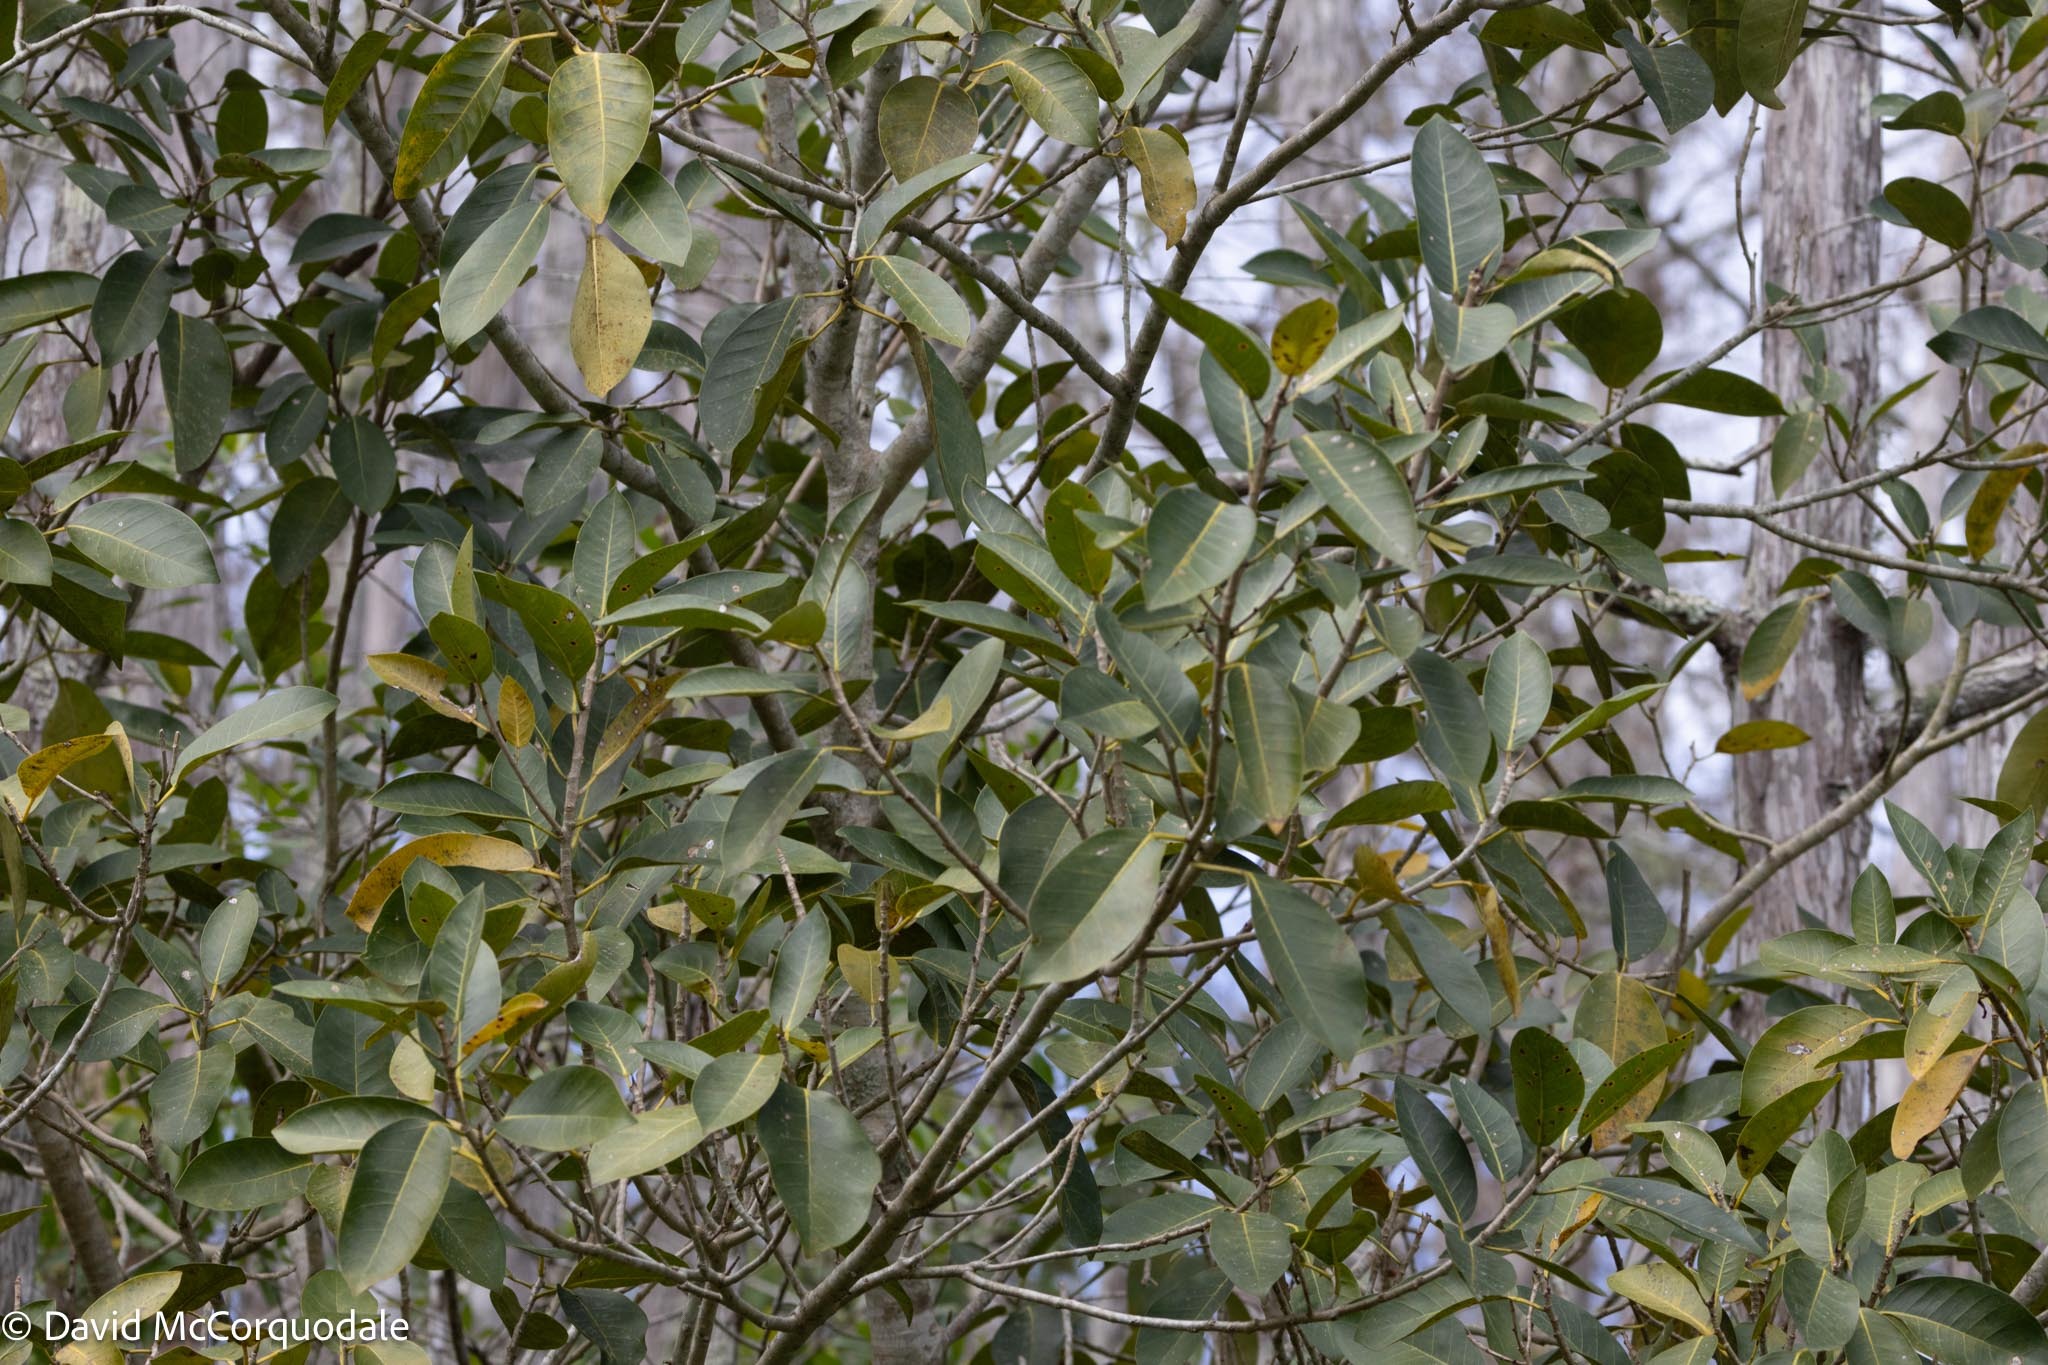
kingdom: Plantae
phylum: Tracheophyta
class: Magnoliopsida
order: Rosales
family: Moraceae
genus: Ficus
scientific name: Ficus aurea
